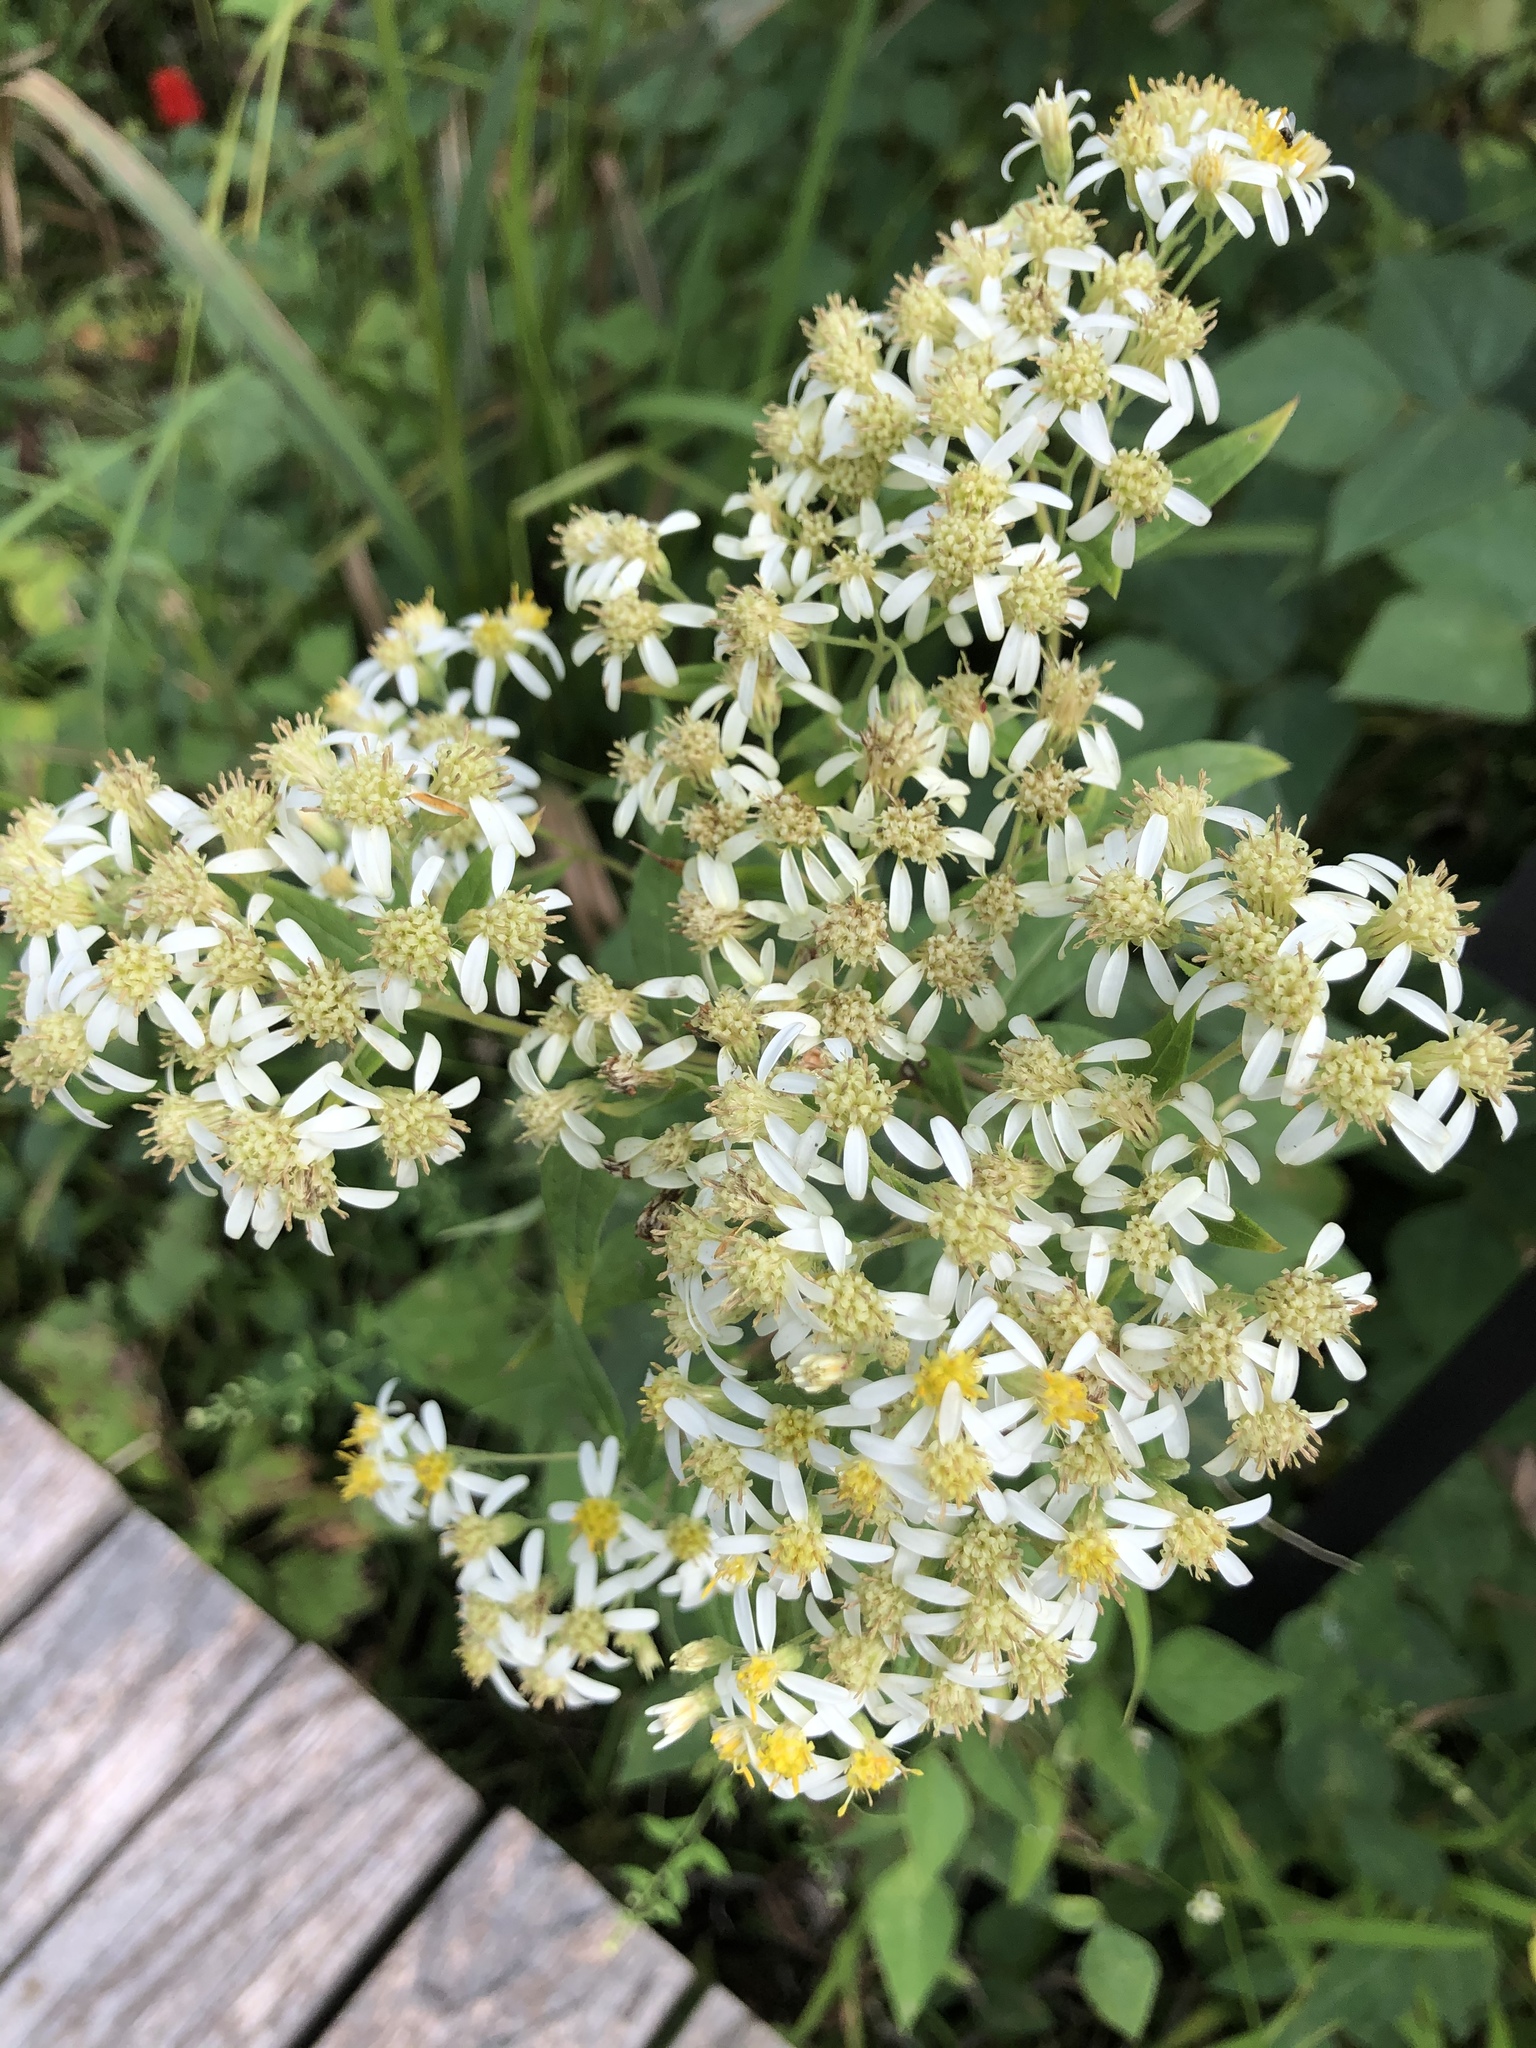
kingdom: Plantae
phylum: Tracheophyta
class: Magnoliopsida
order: Asterales
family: Asteraceae
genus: Doellingeria
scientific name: Doellingeria umbellata
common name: Flat-top white aster
